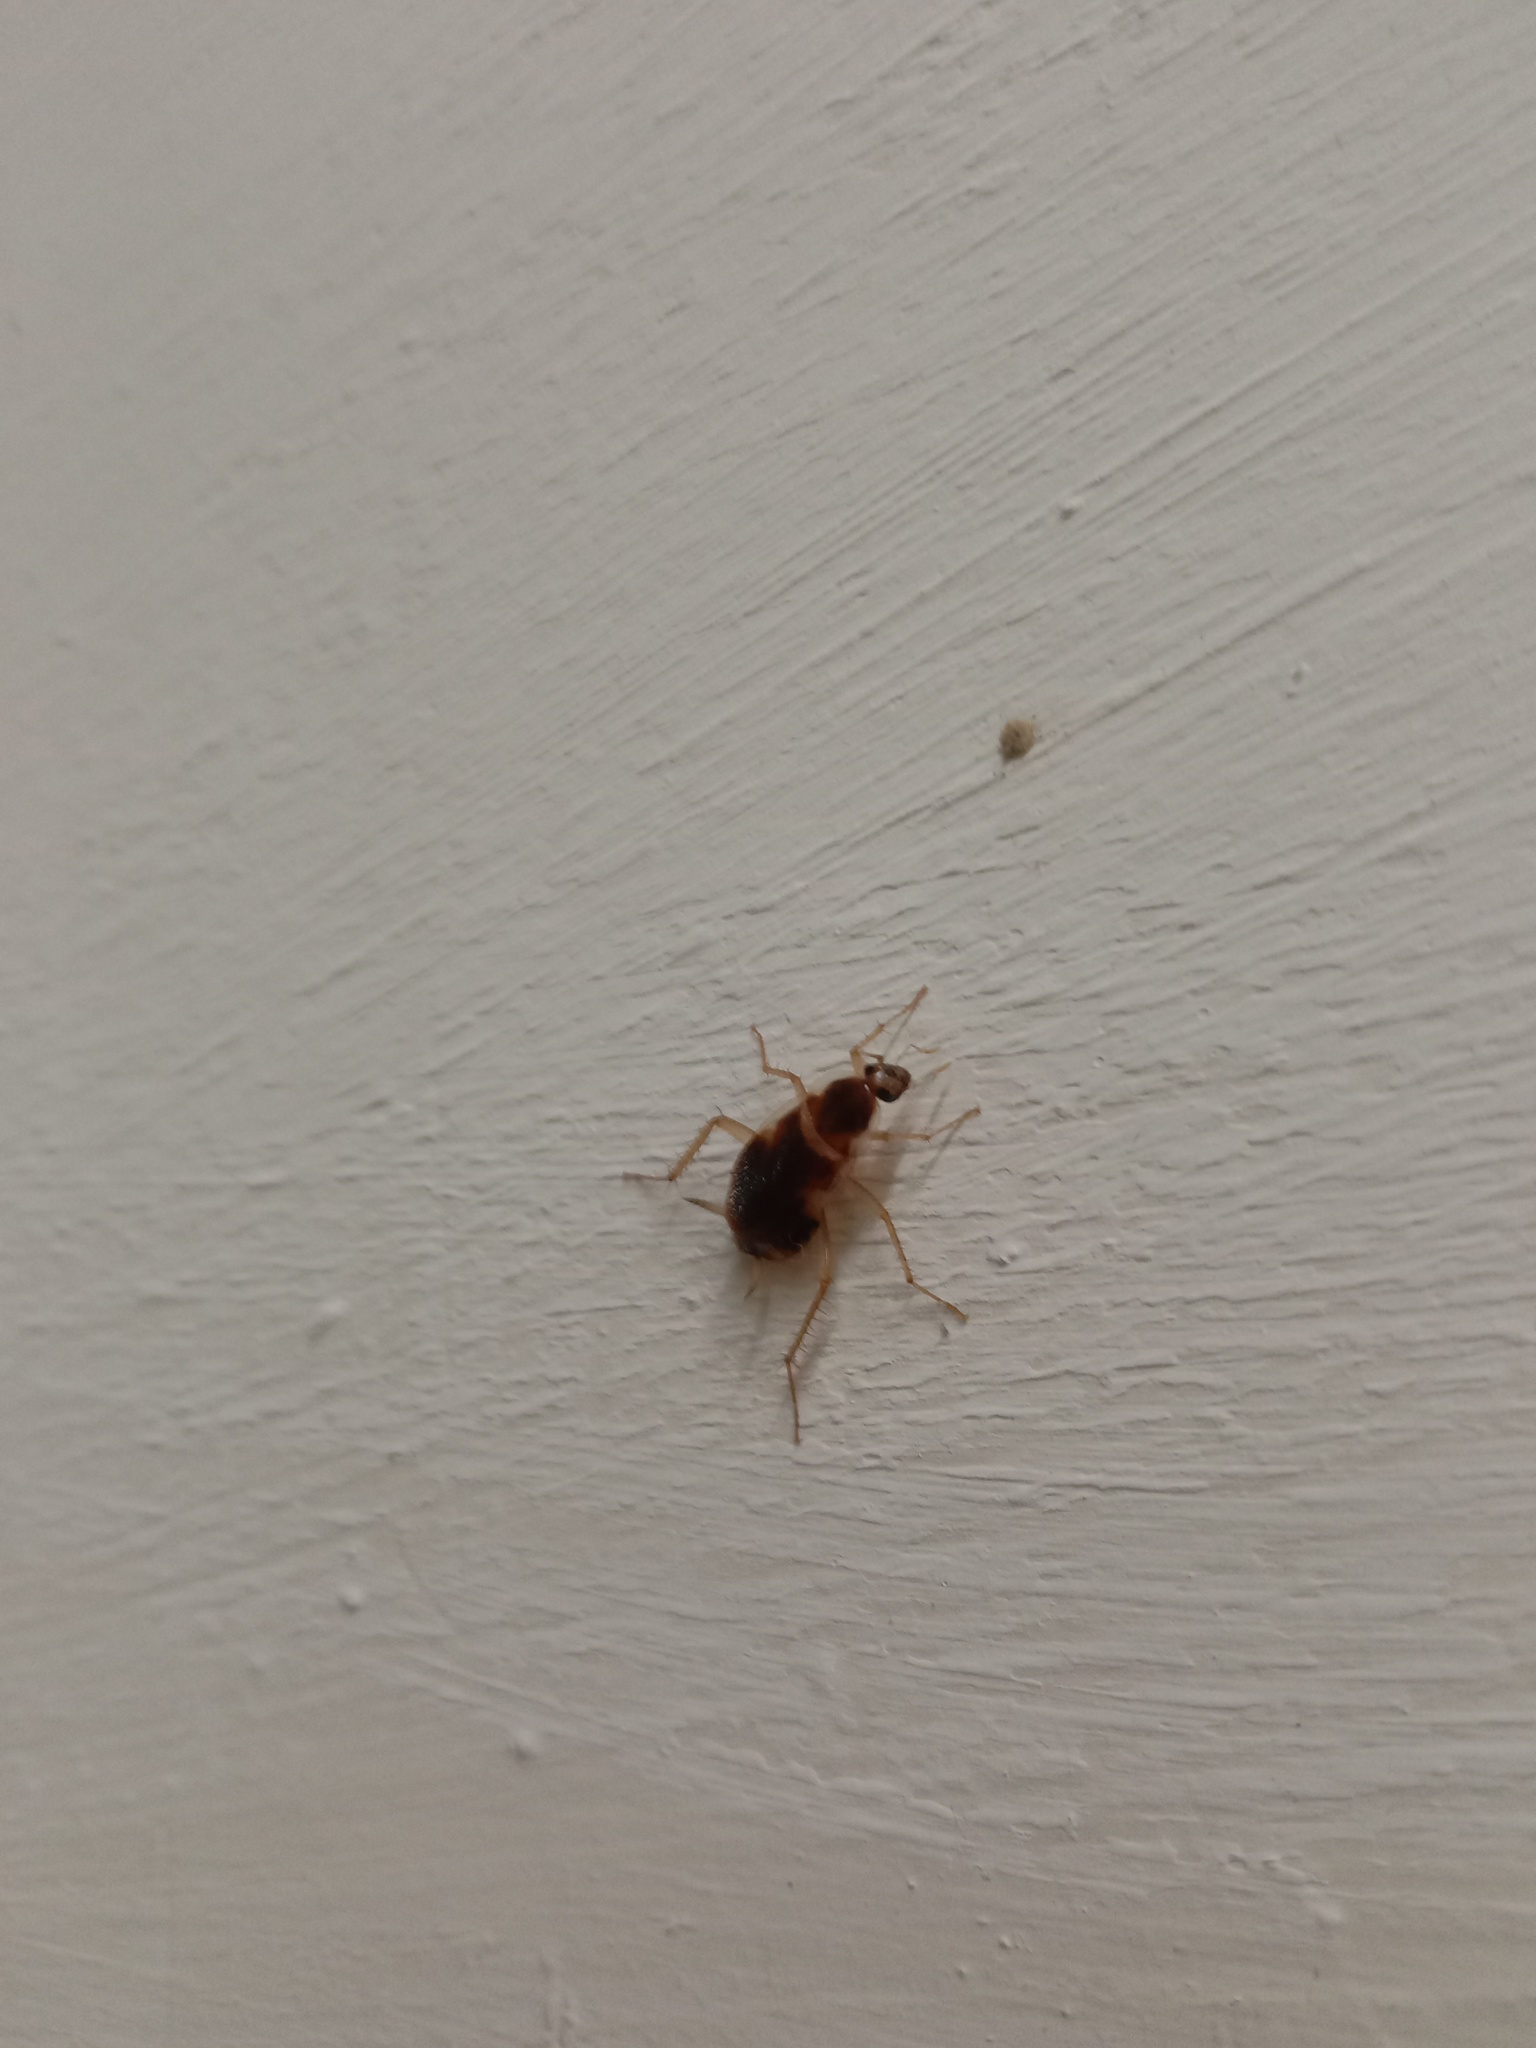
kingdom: Animalia
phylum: Arthropoda
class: Insecta
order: Blattodea
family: Ectobiidae
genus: Supella
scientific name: Supella longipalpa
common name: Brown-banded cockroach
